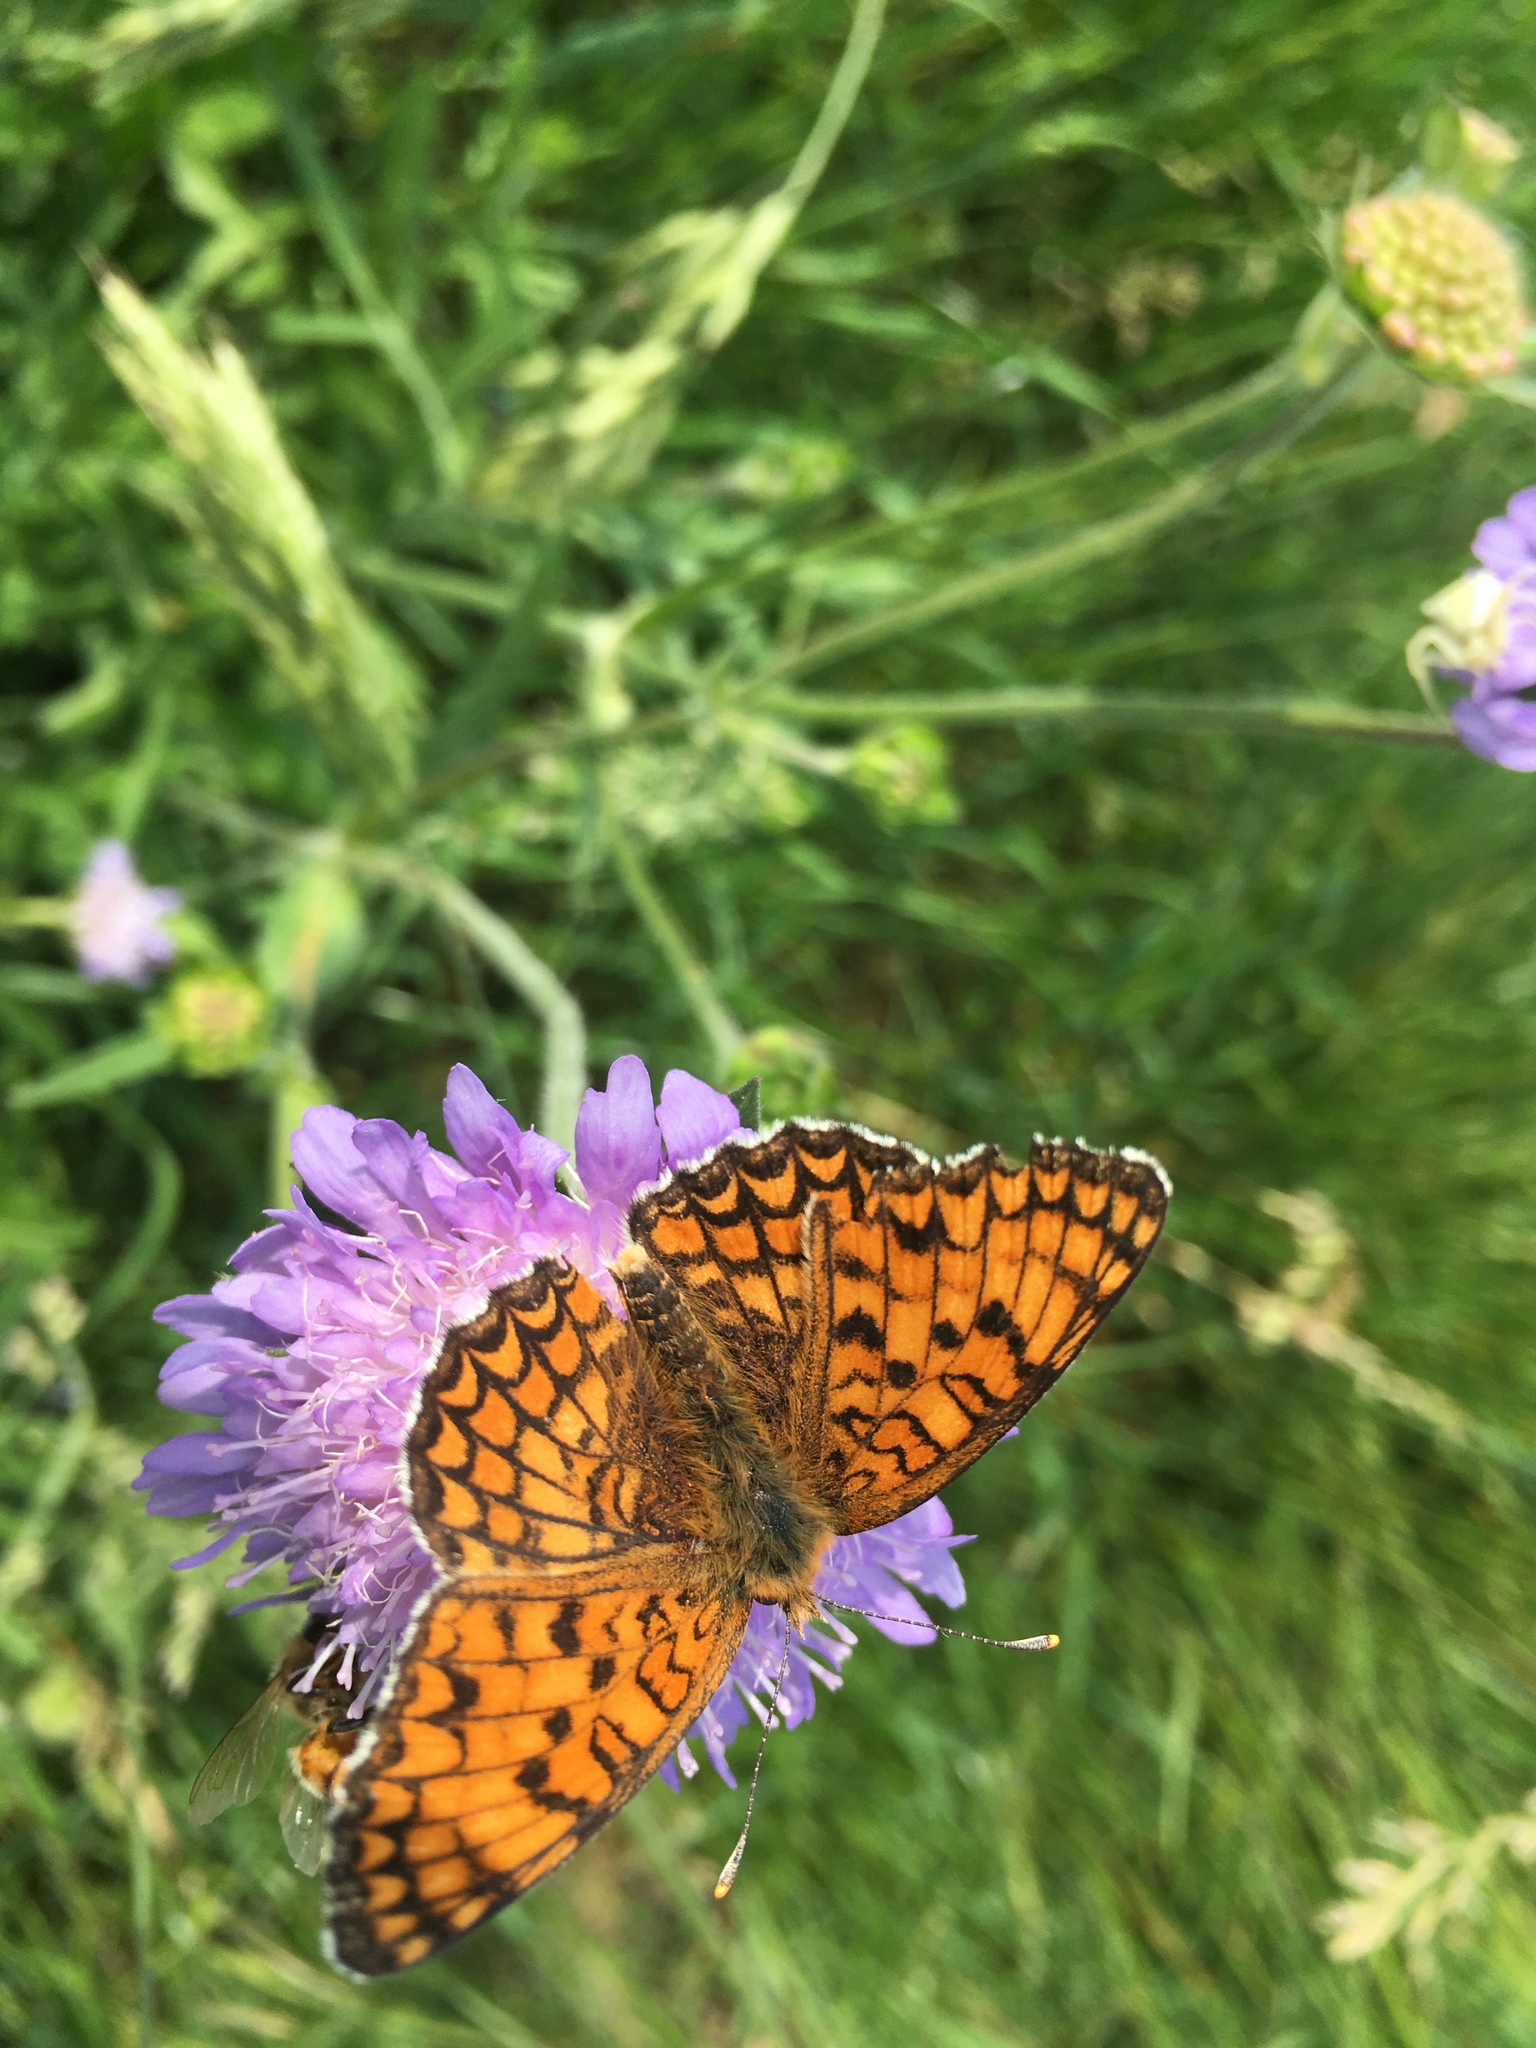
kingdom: Animalia
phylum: Arthropoda
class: Insecta
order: Lepidoptera
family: Nymphalidae
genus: Melitaea
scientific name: Melitaea phoebe
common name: Knapweed fritillary
